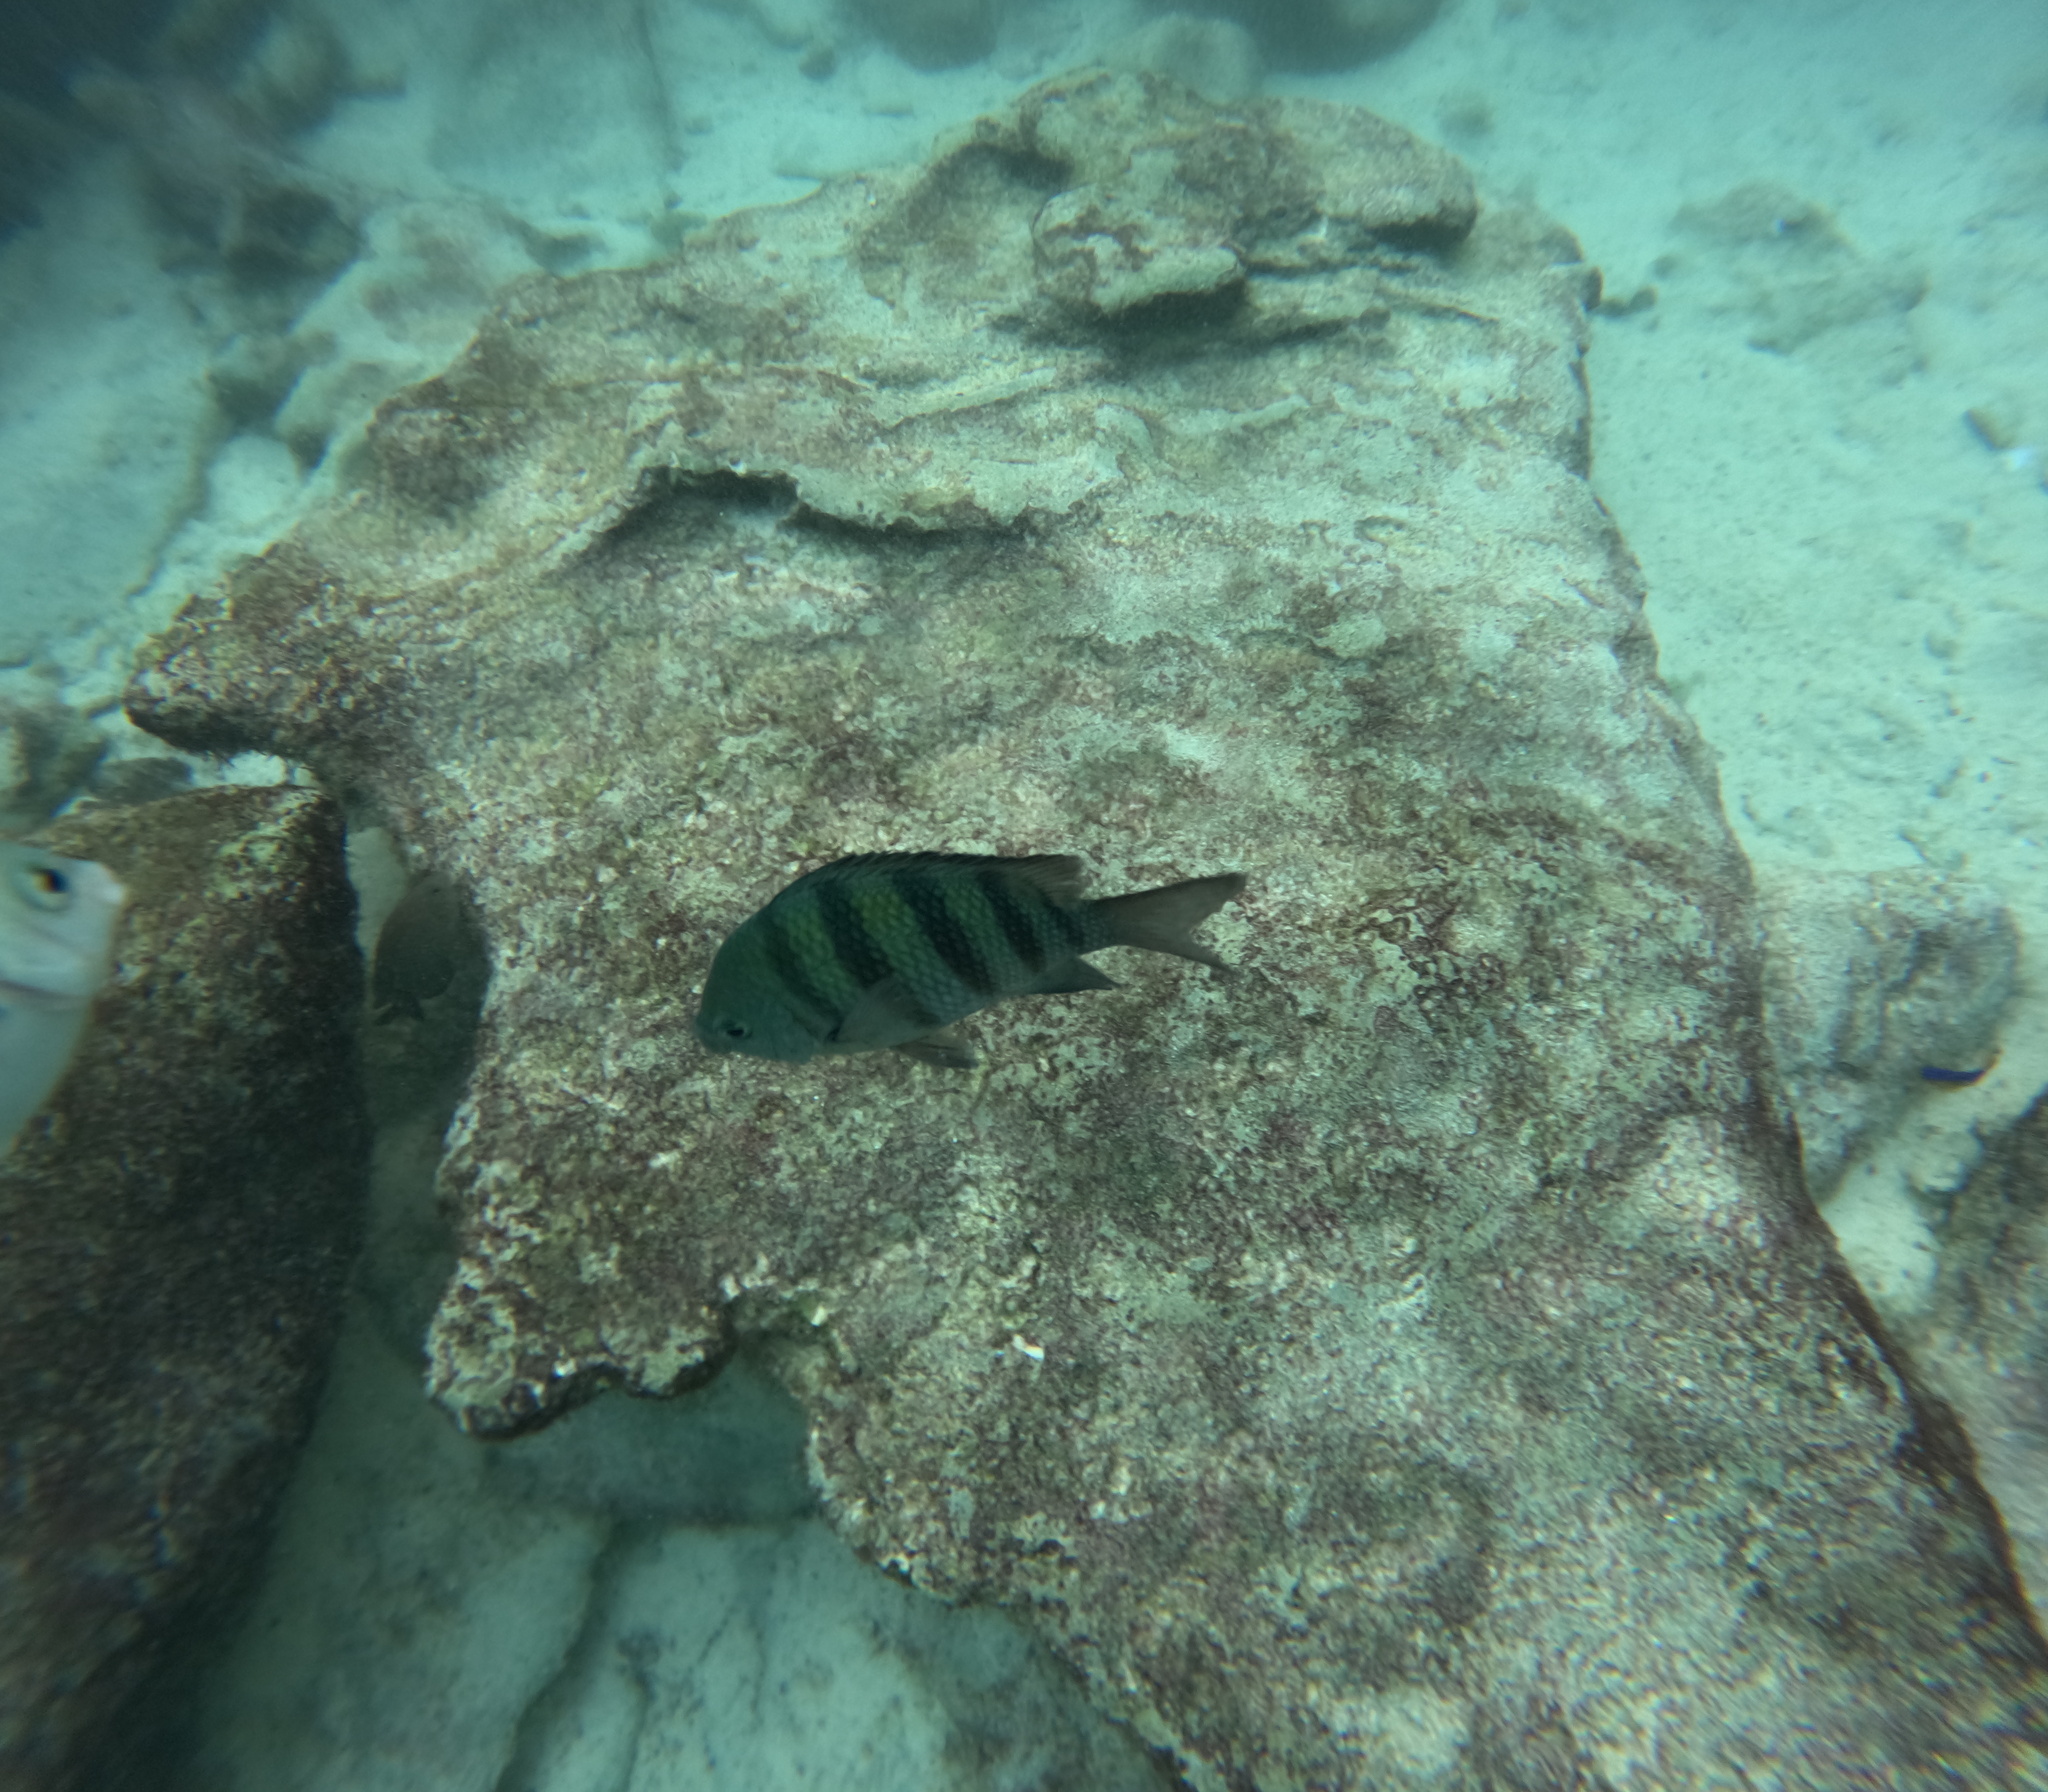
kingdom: Animalia
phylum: Chordata
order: Perciformes
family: Pomacentridae
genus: Abudefduf
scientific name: Abudefduf saxatilis
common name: Sergeant major
